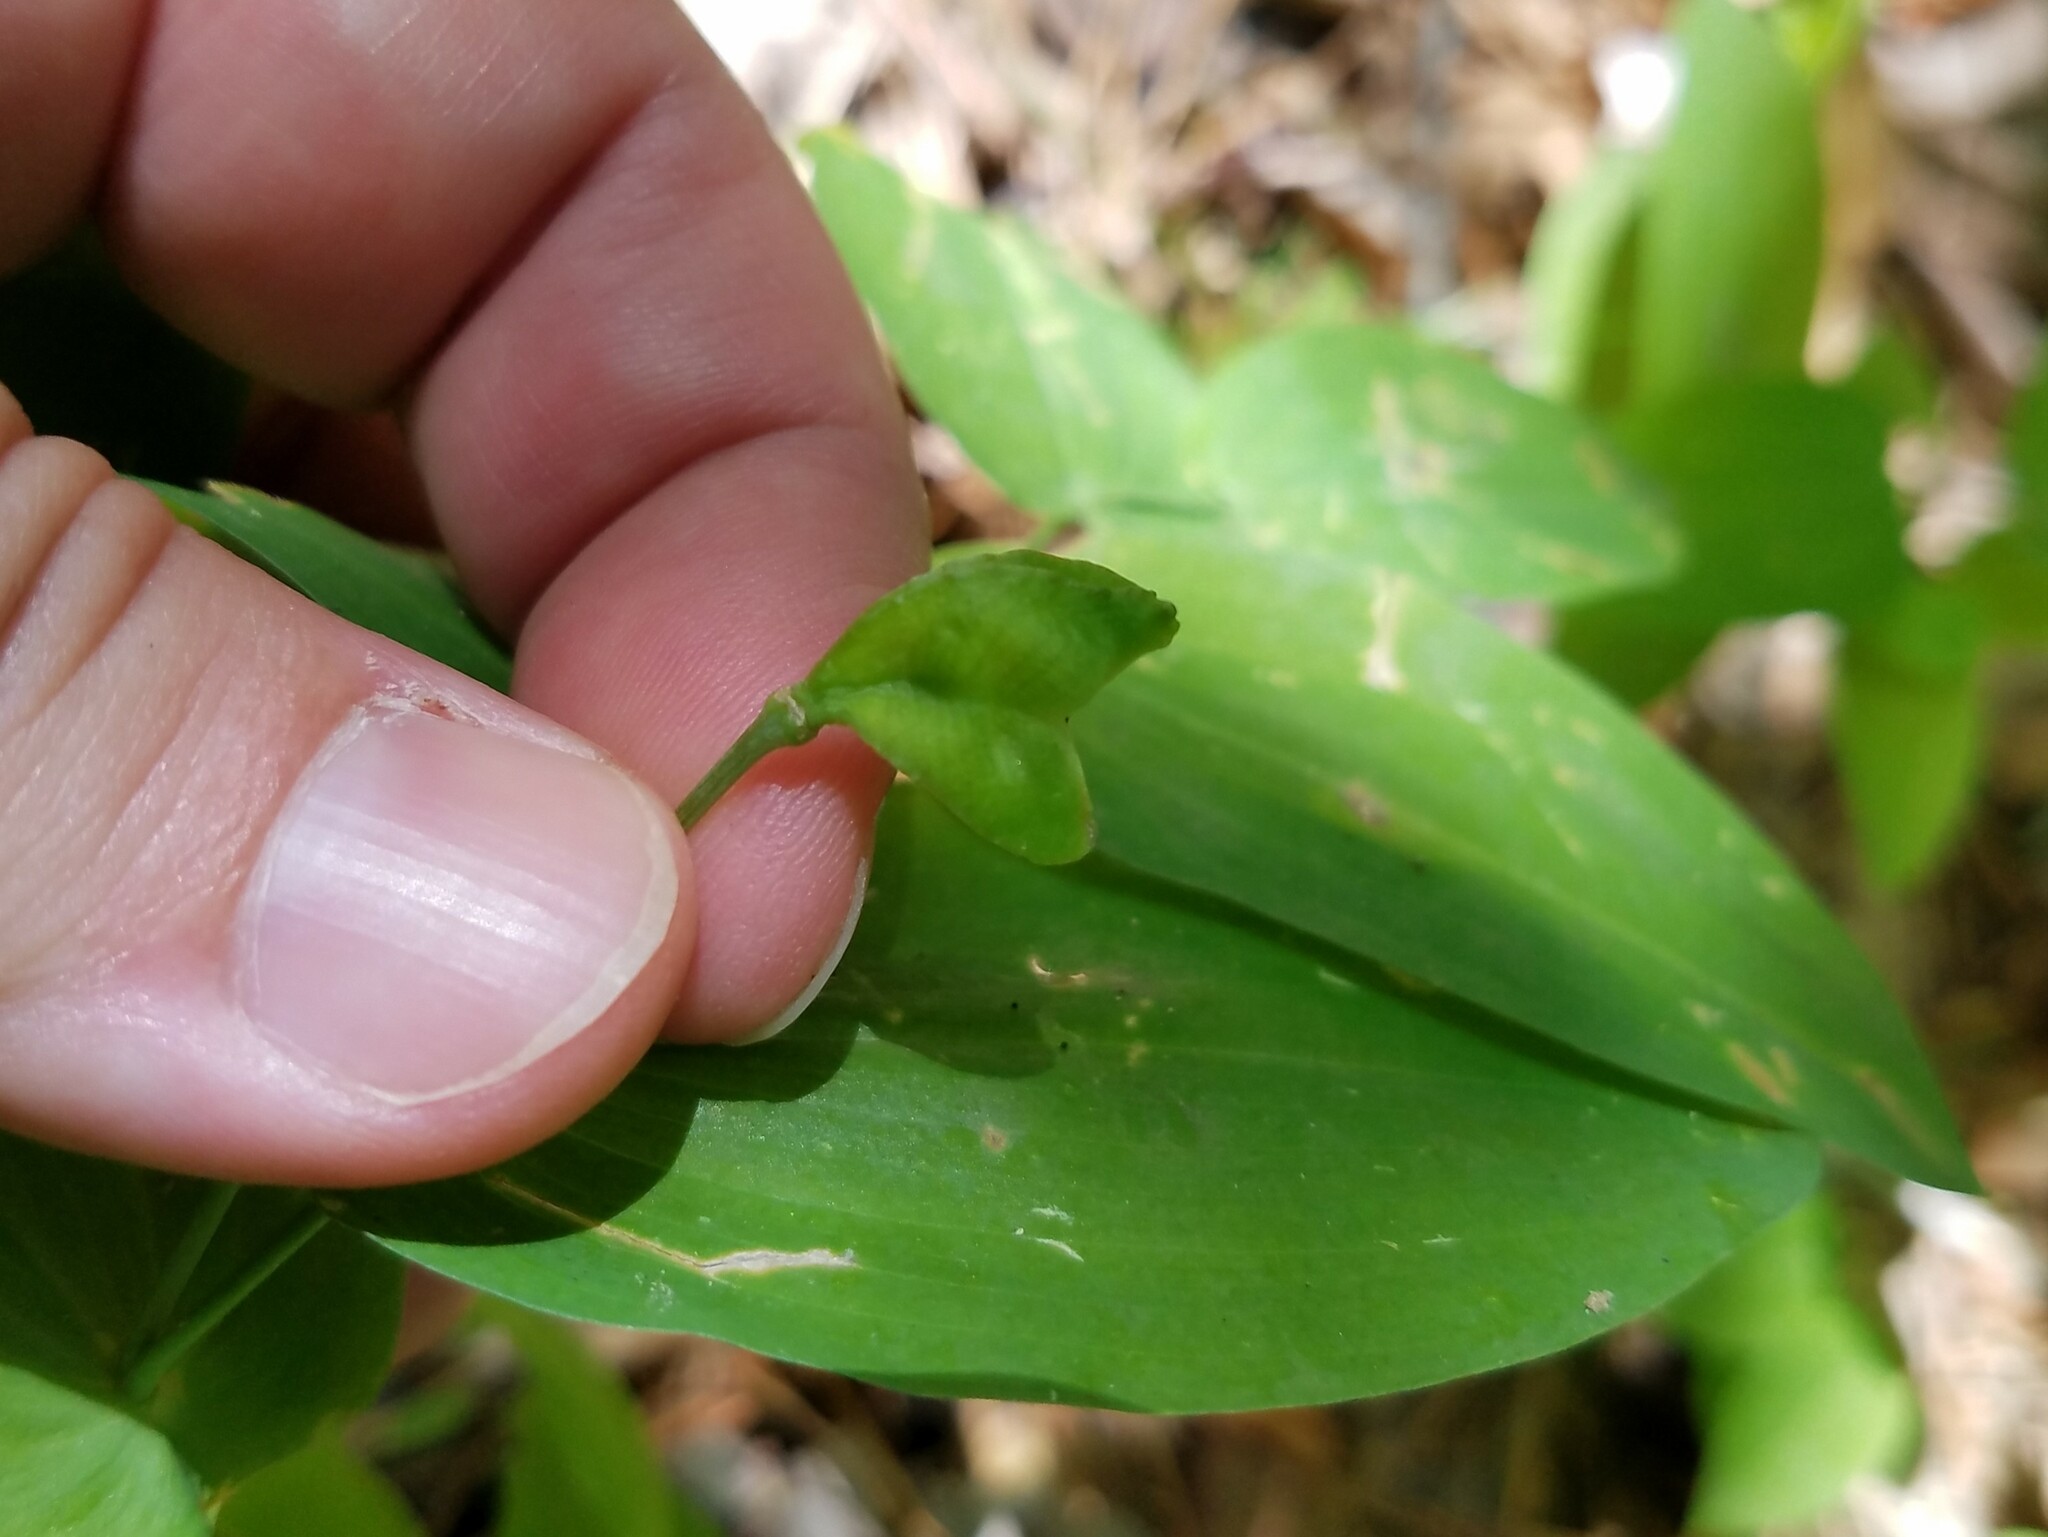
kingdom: Plantae
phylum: Tracheophyta
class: Liliopsida
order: Liliales
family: Colchicaceae
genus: Uvularia
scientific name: Uvularia perfoliata
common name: Perfoliate bellwort
